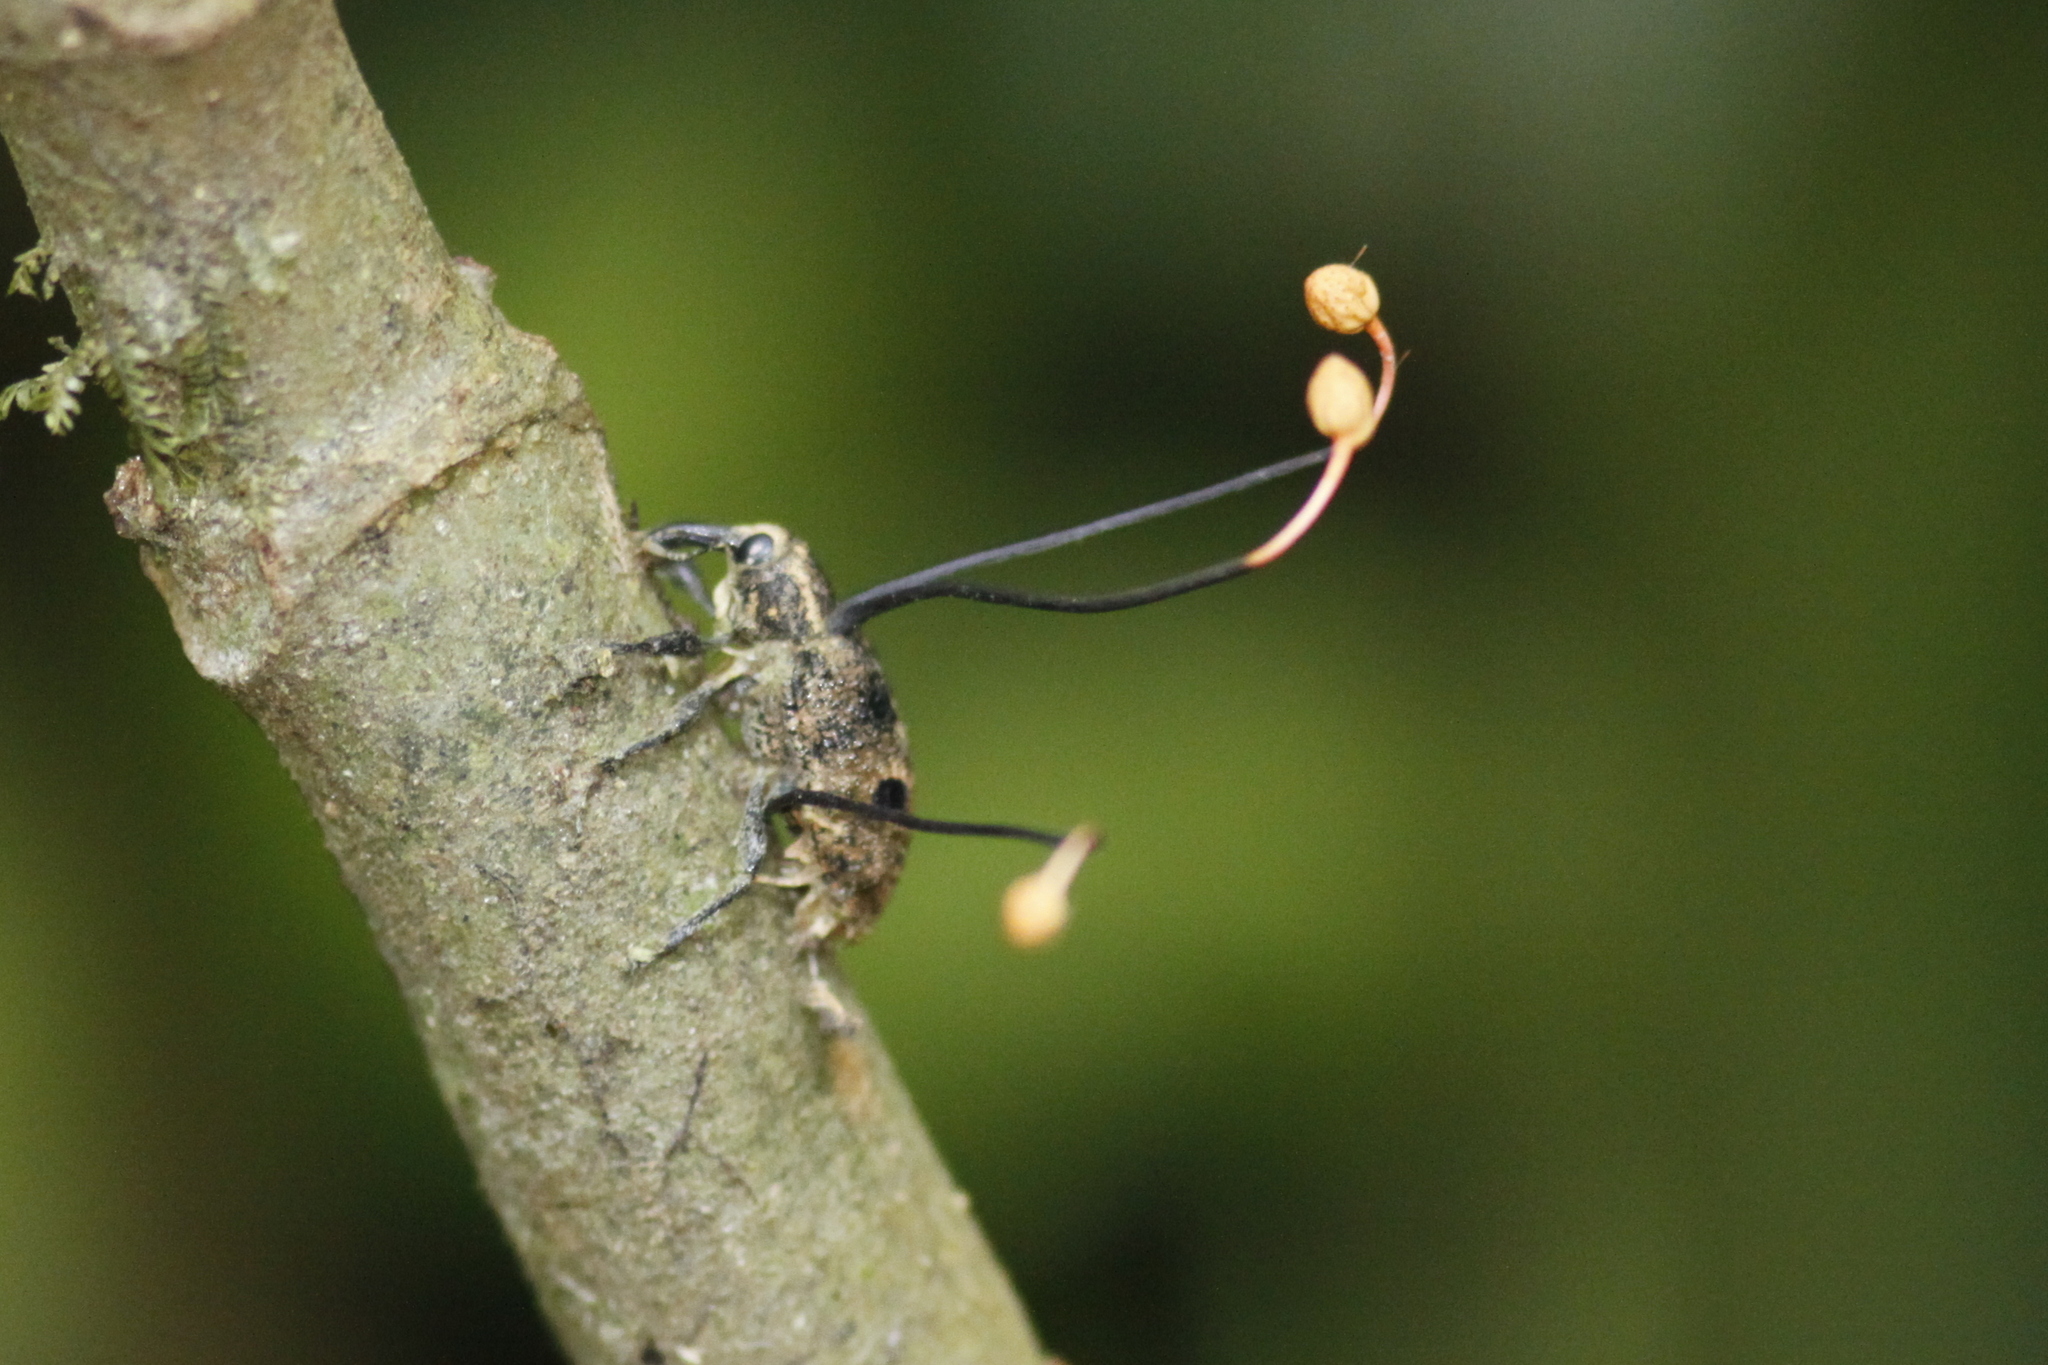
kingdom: Fungi
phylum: Ascomycota
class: Sordariomycetes
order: Hypocreales
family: Ophiocordycipitaceae
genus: Ophiocordyceps
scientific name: Ophiocordyceps curculionum
